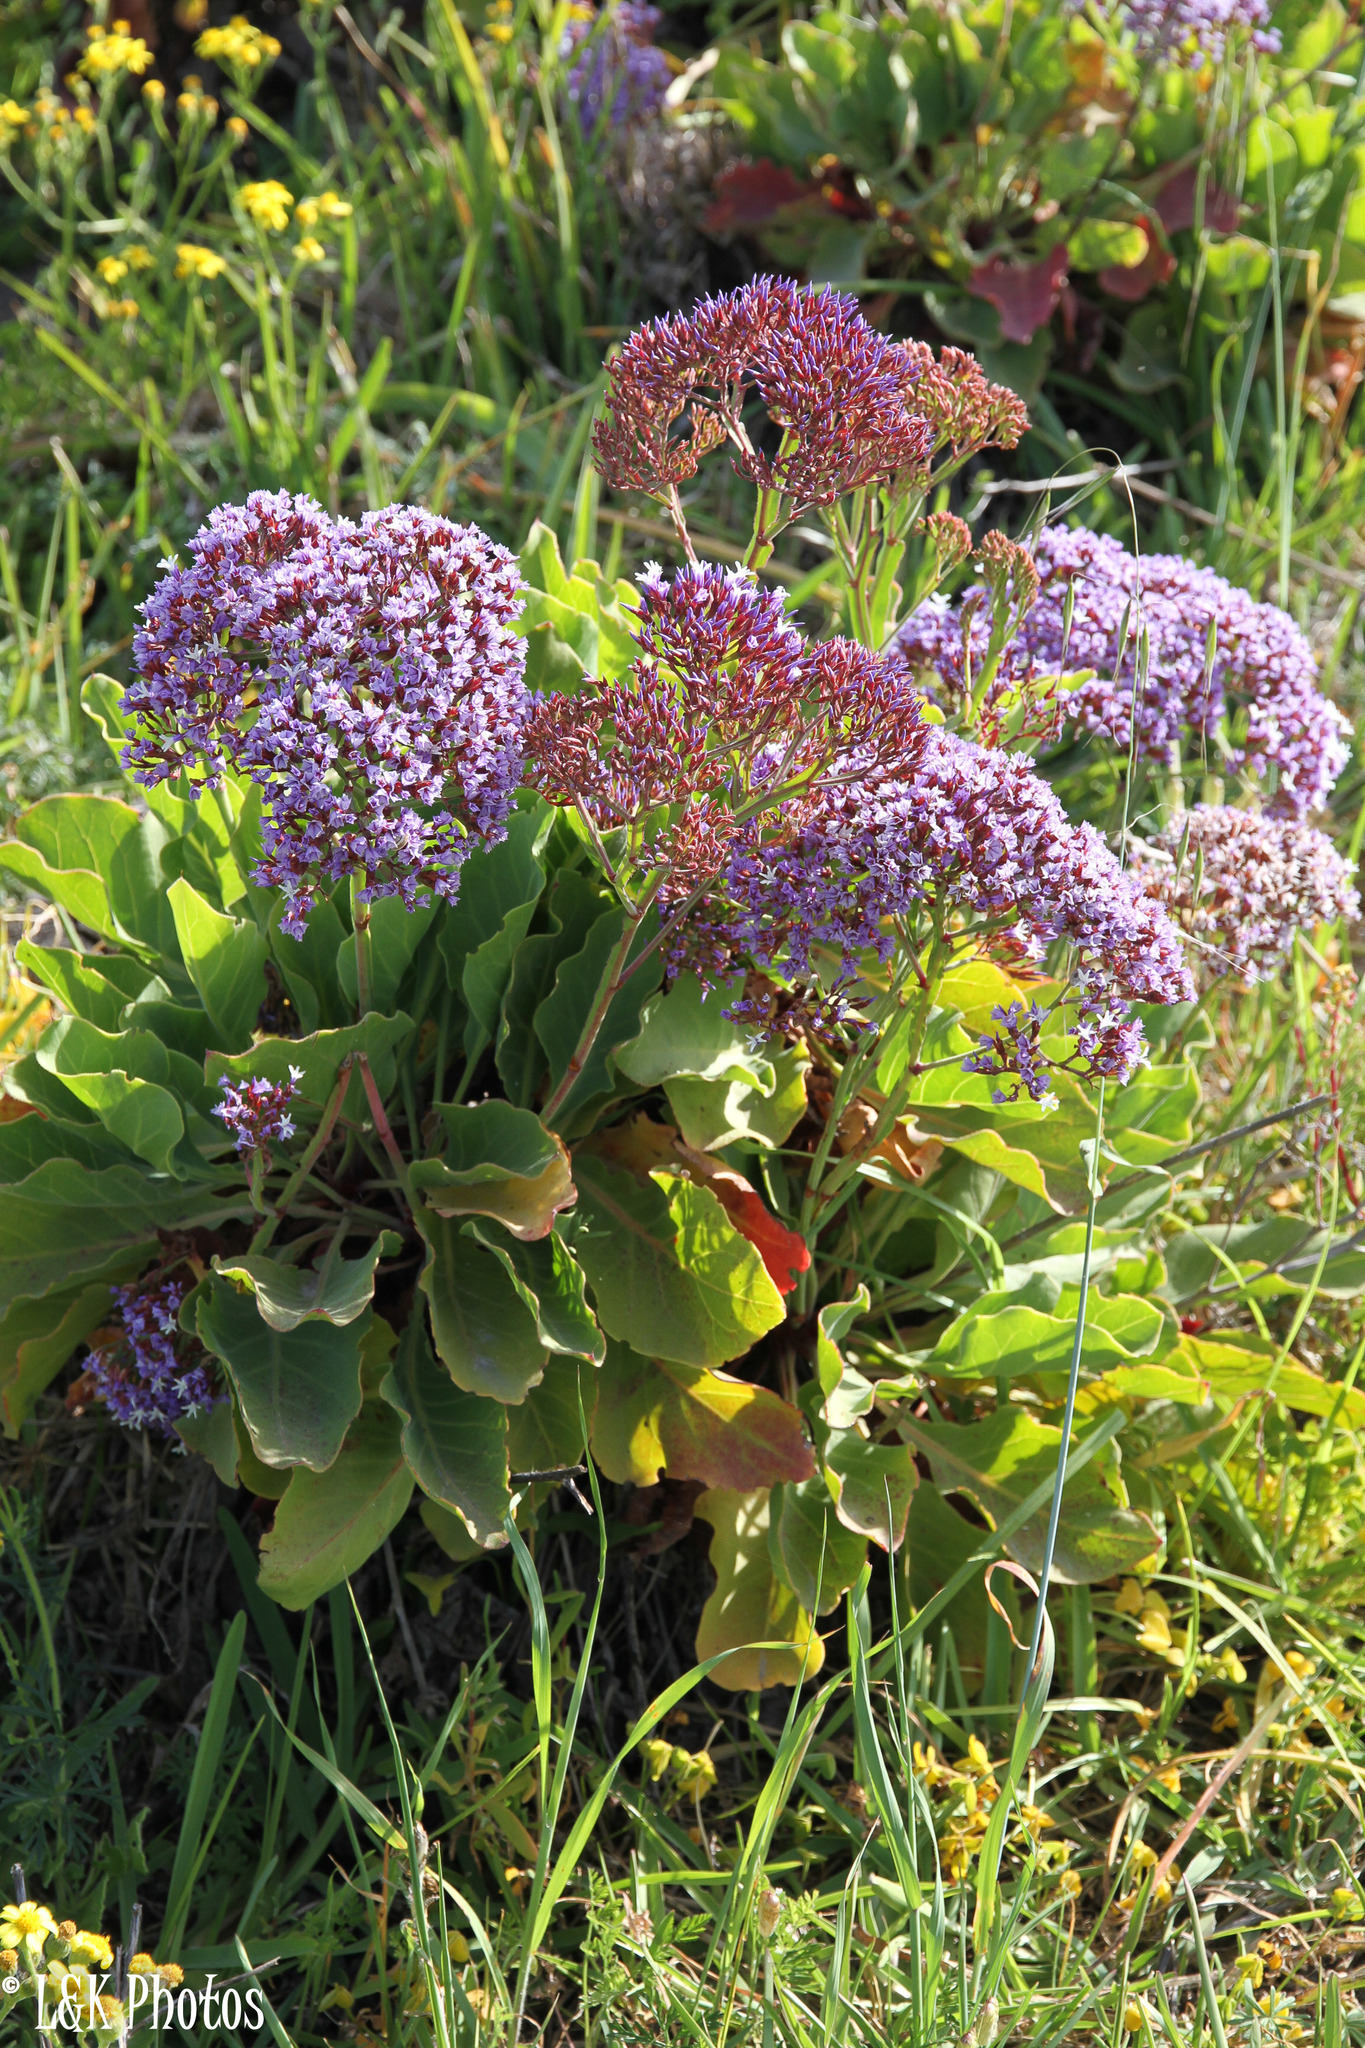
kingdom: Plantae
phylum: Tracheophyta
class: Magnoliopsida
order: Caryophyllales
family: Plumbaginaceae
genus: Limonium
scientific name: Limonium perezii
